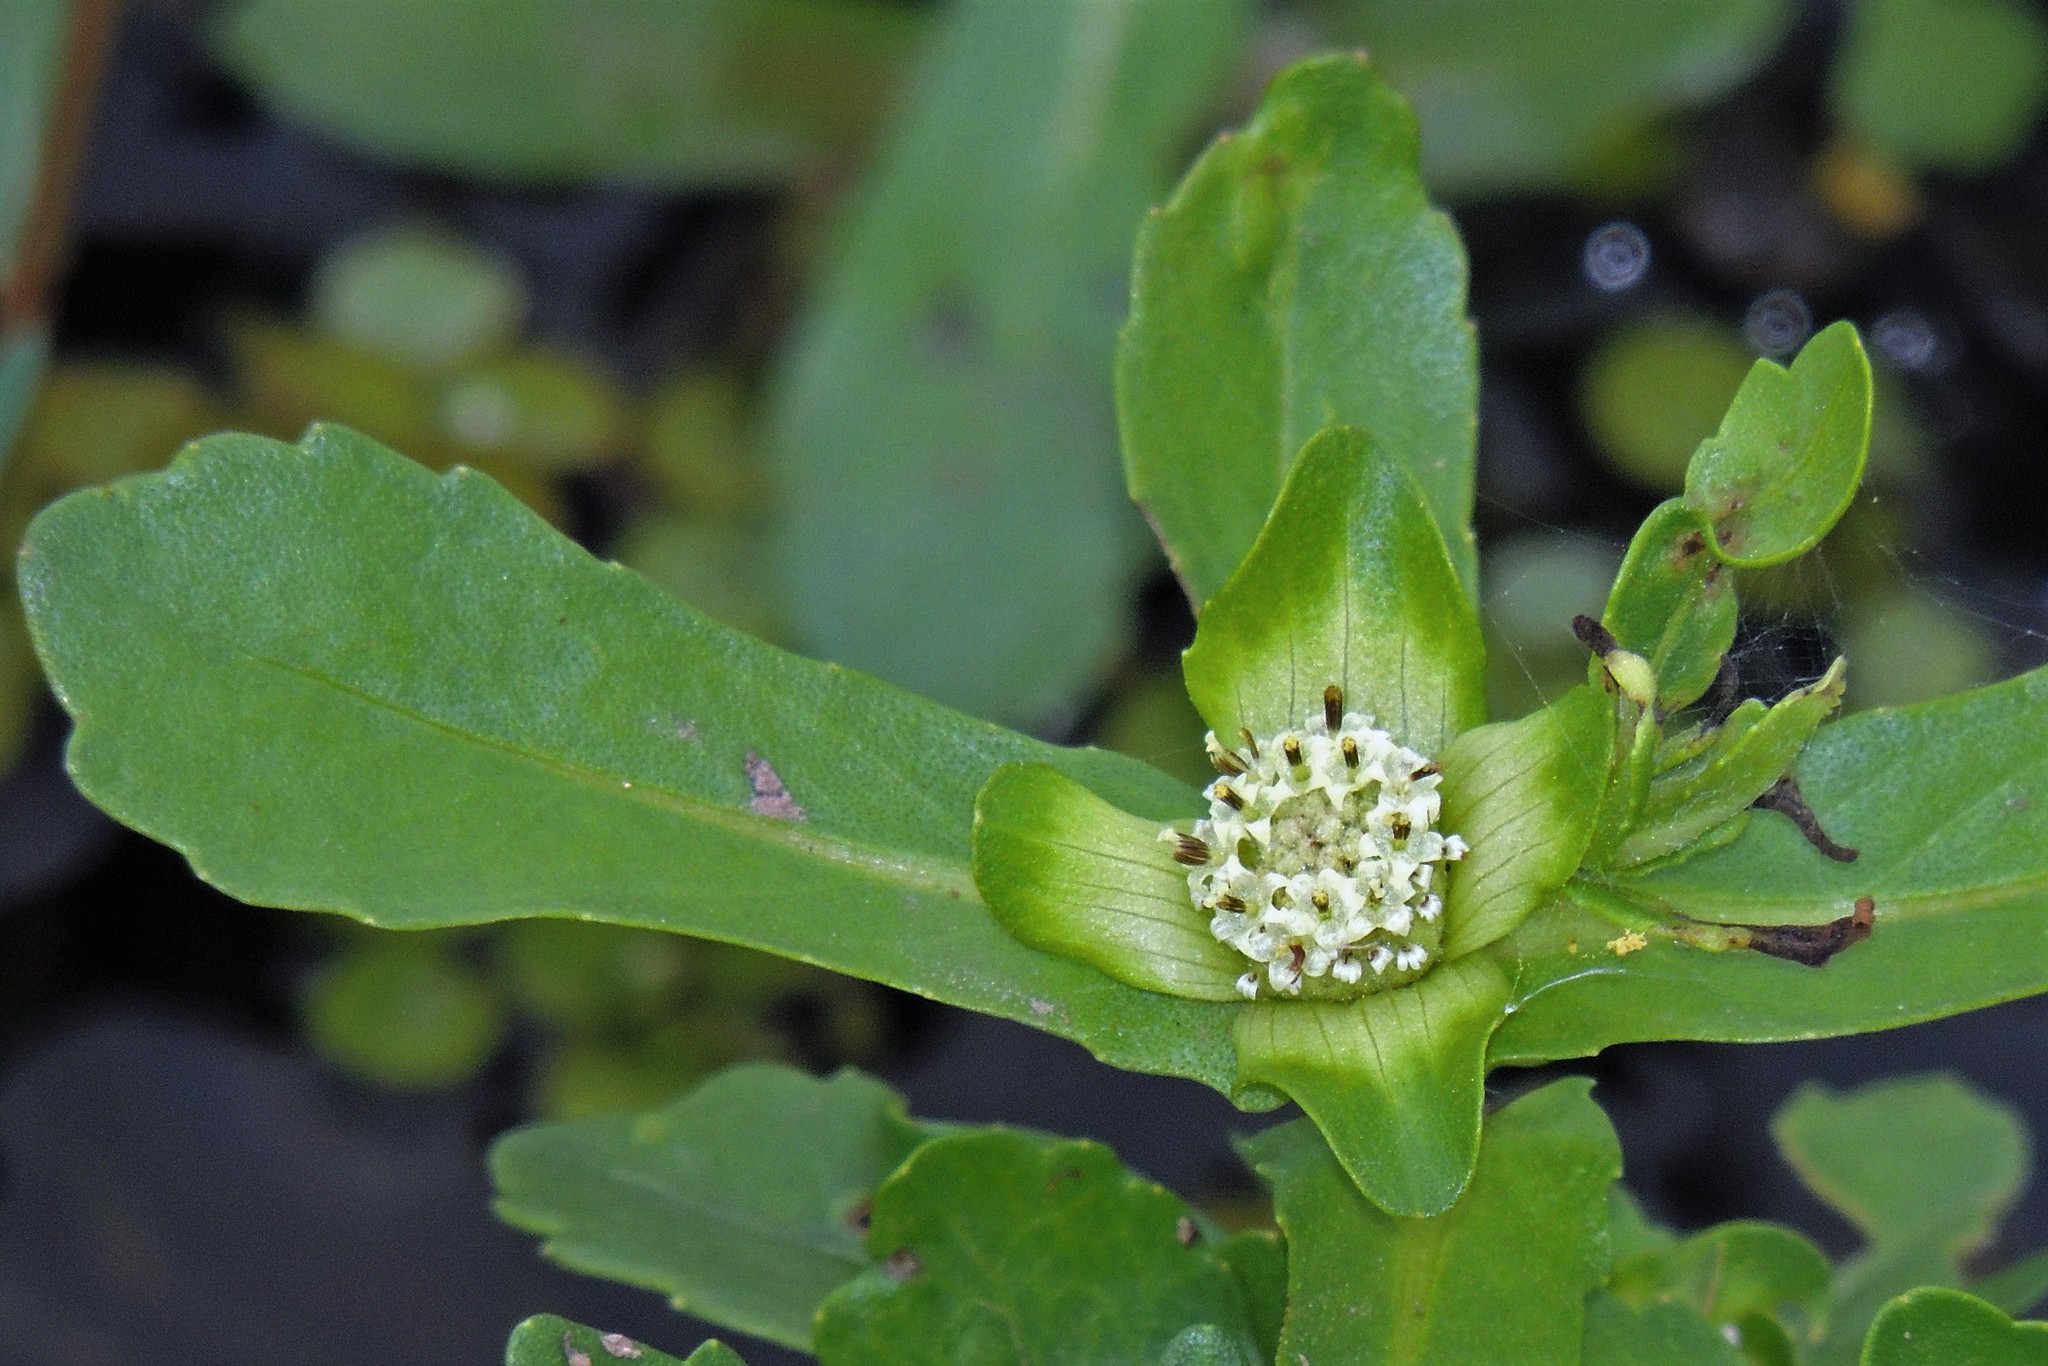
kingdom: Plantae
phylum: Tracheophyta
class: Magnoliopsida
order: Asterales
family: Asteraceae
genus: Enydra
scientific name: Enydra fluctuans
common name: Buffalo spinach
